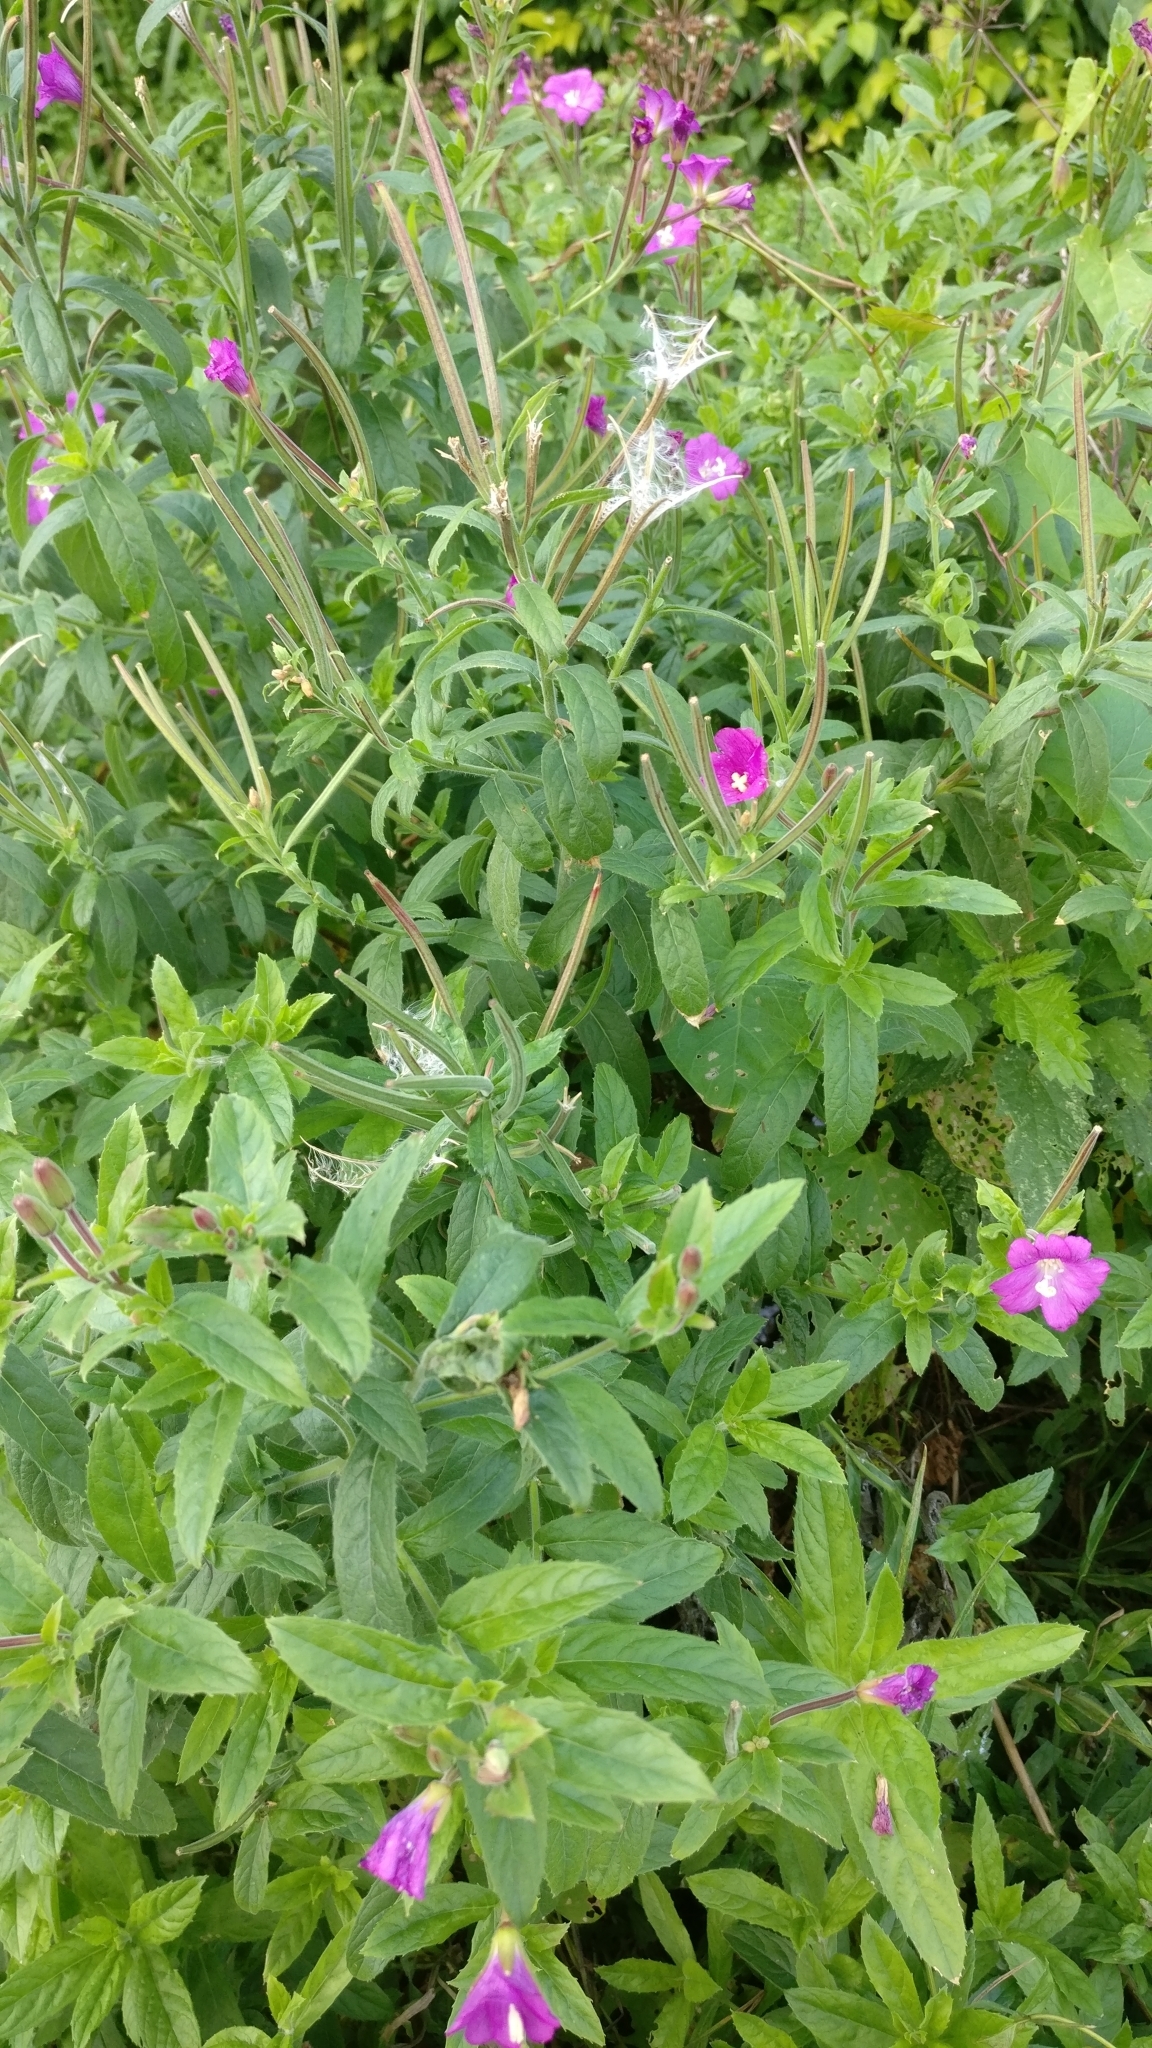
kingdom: Plantae
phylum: Tracheophyta
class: Magnoliopsida
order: Myrtales
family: Onagraceae
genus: Epilobium
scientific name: Epilobium hirsutum
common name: Great willowherb
